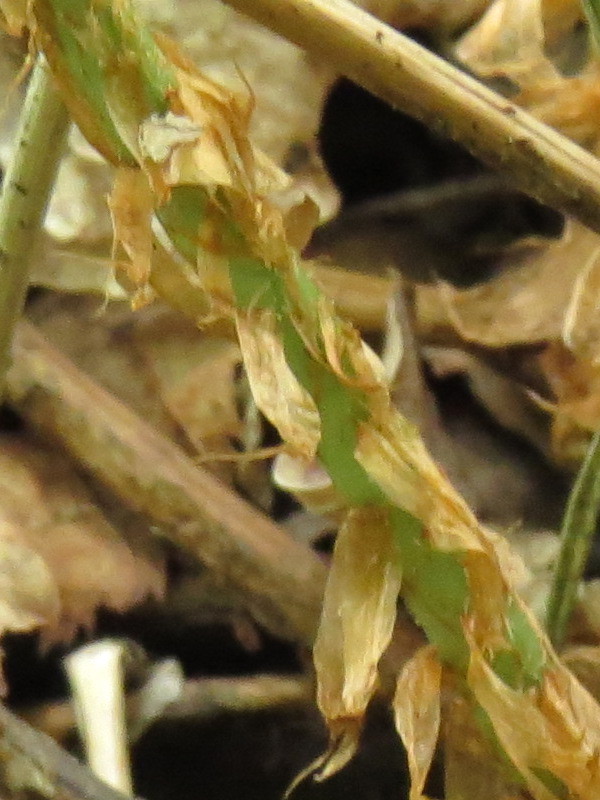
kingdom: Plantae
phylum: Tracheophyta
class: Polypodiopsida
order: Polypodiales
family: Dryopteridaceae
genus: Dryopteris
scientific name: Dryopteris marginalis
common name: Marginal wood fern
